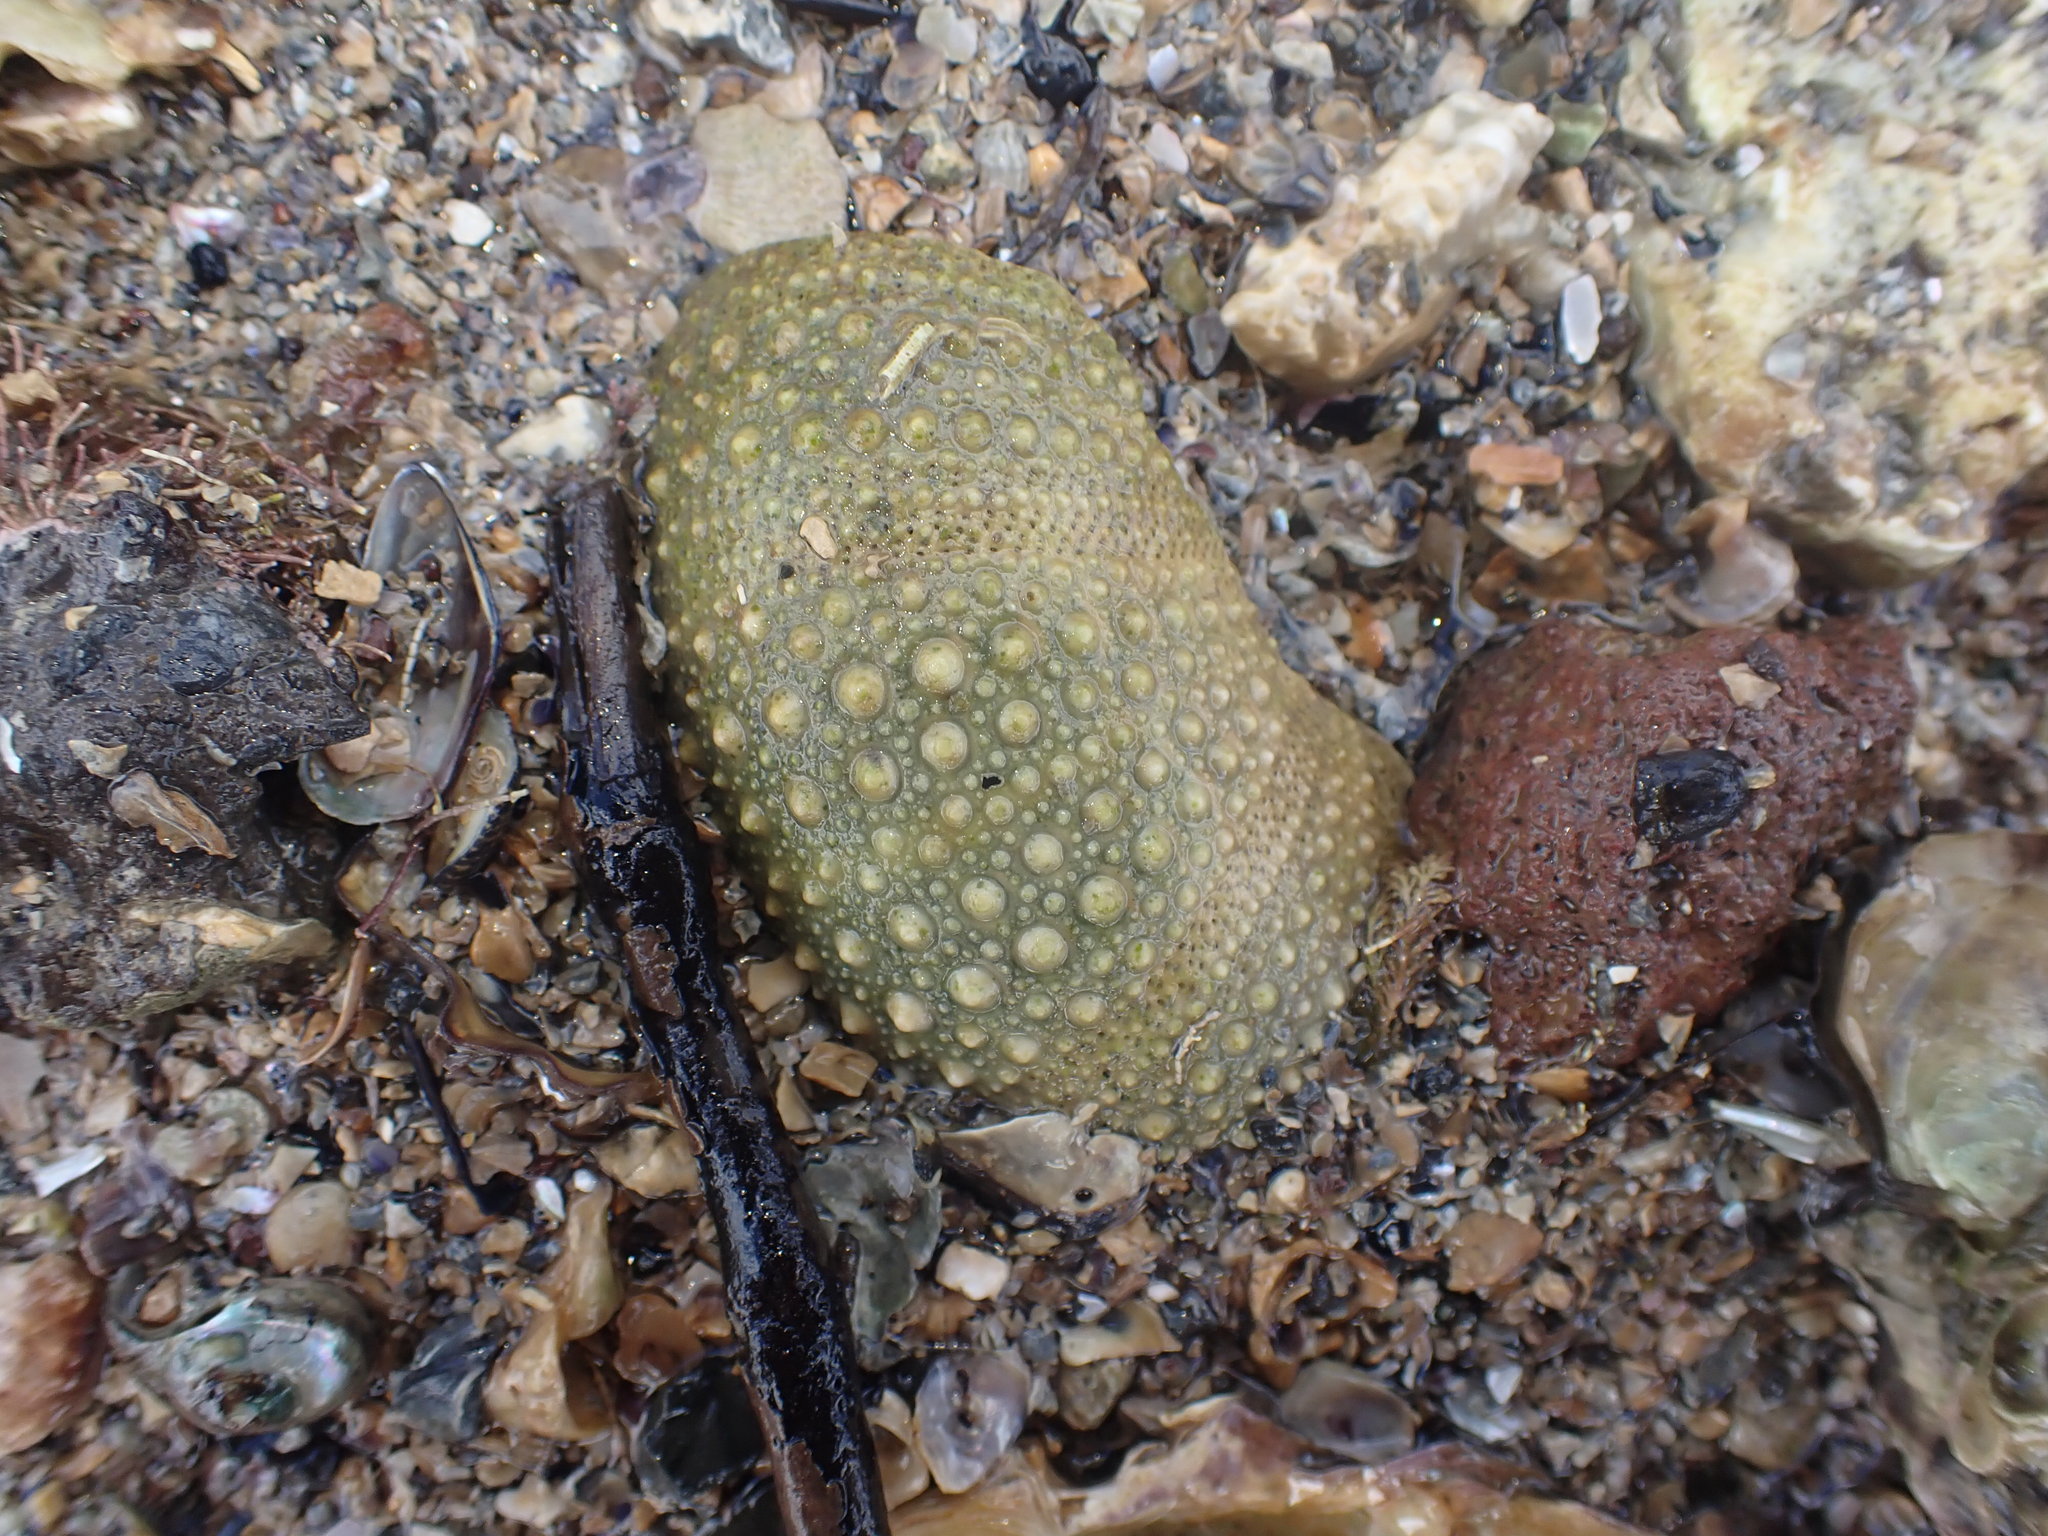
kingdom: Animalia
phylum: Echinodermata
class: Echinoidea
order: Camarodonta
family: Echinometridae
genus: Evechinus
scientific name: Evechinus chloroticus
